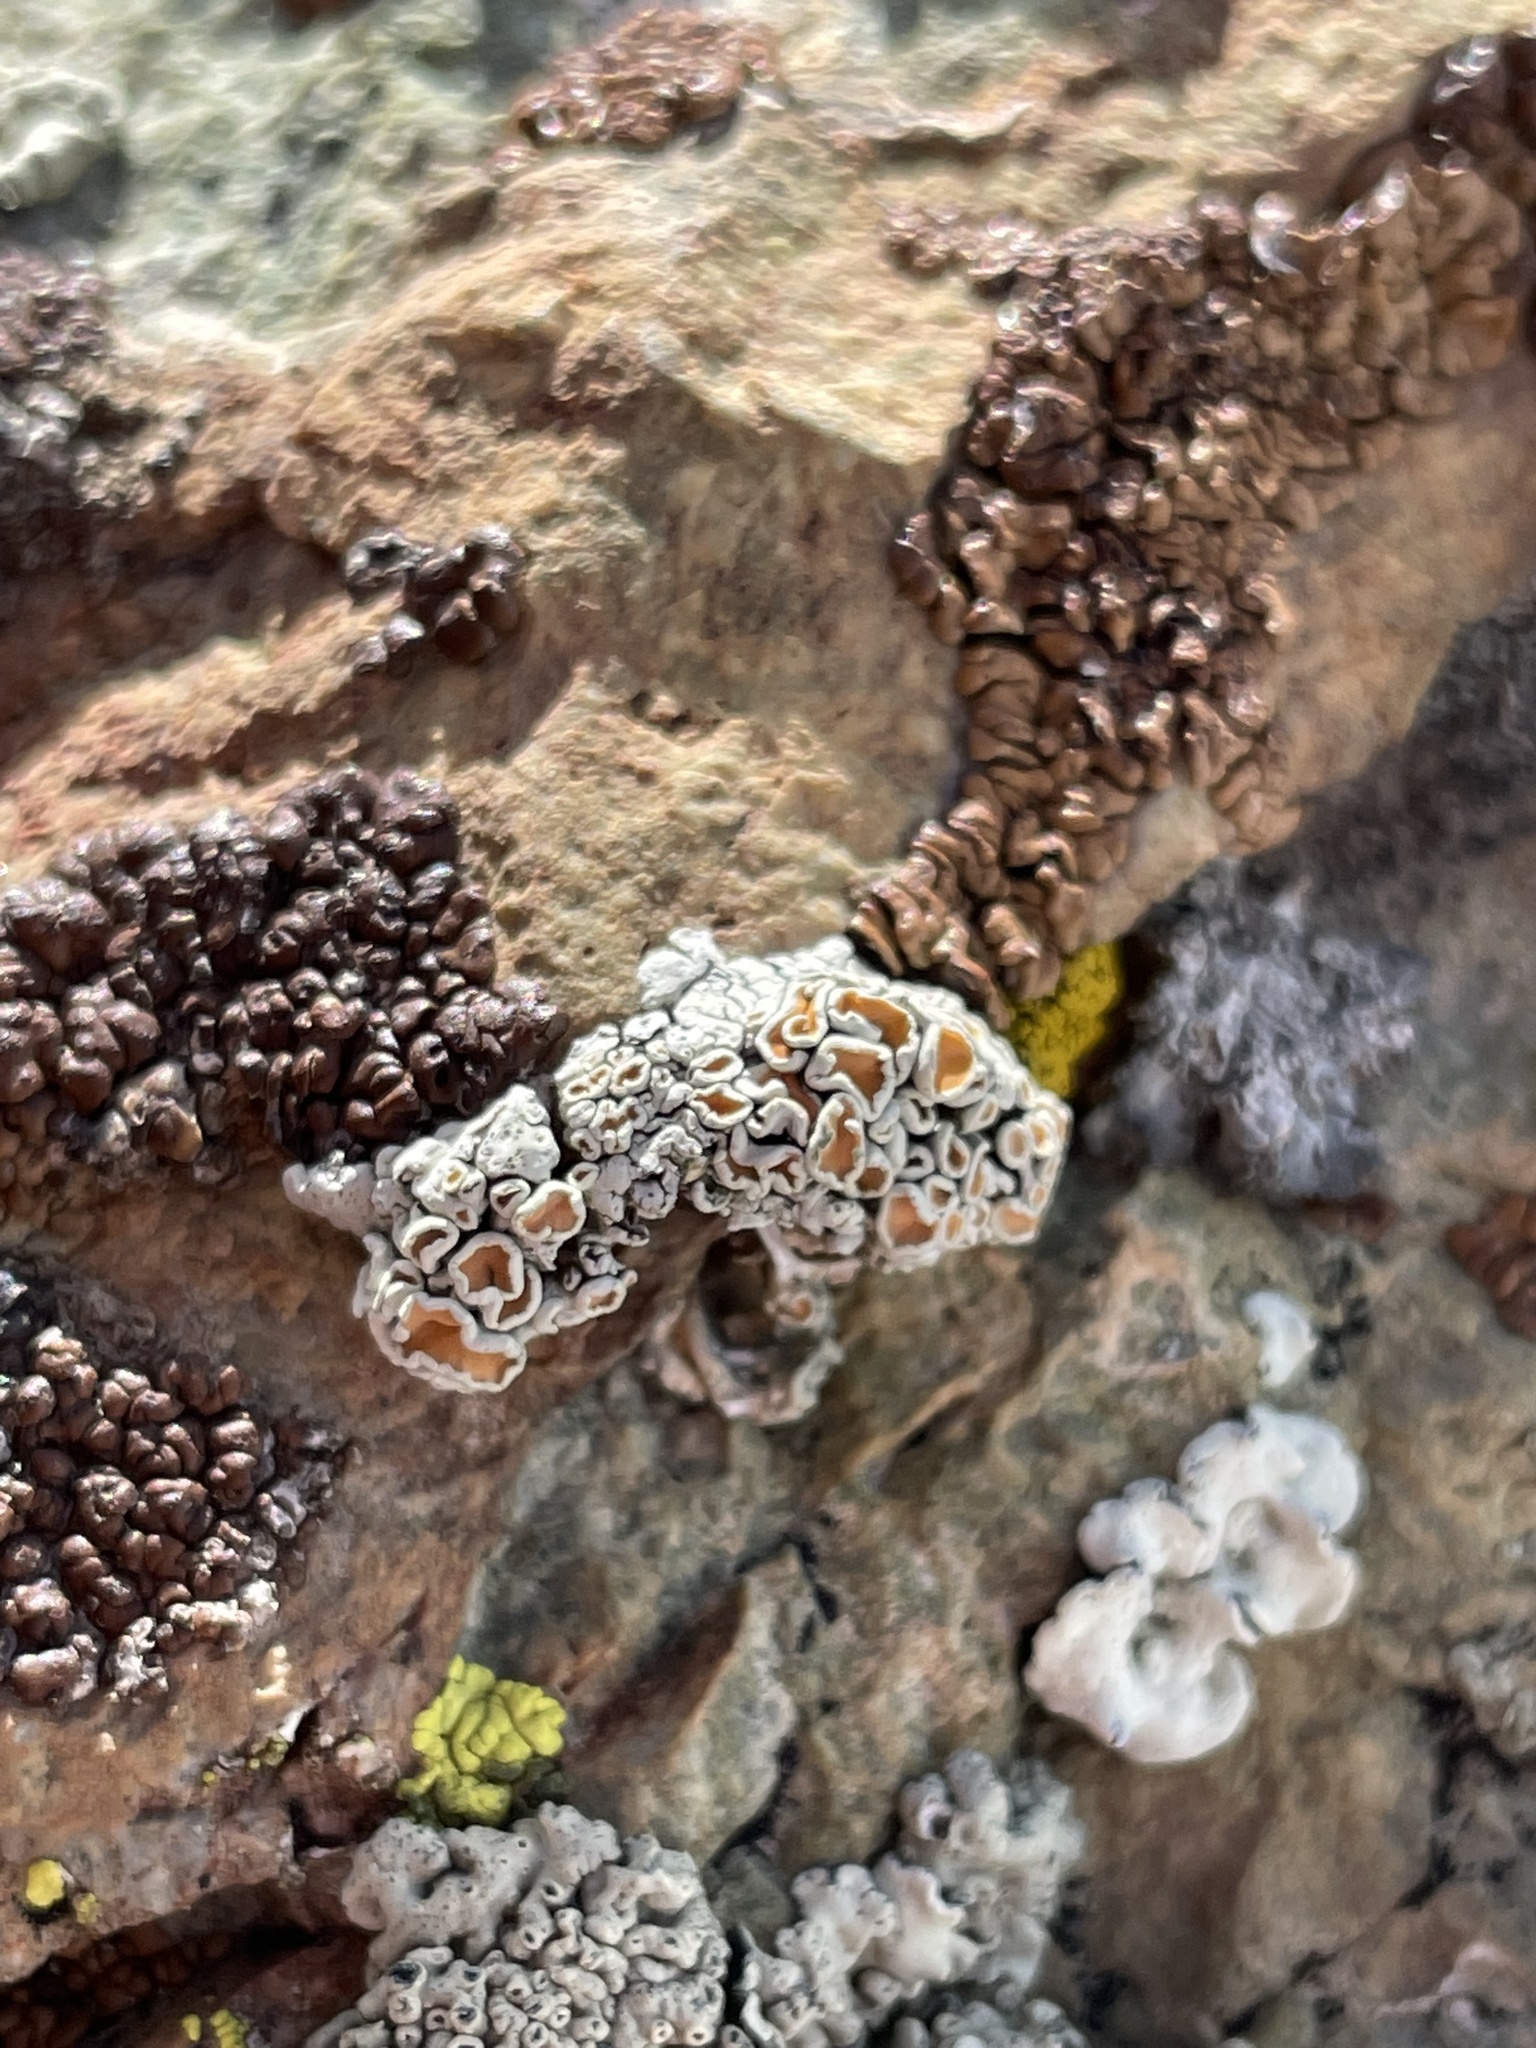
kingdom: Fungi
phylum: Ascomycota
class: Lecanoromycetes
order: Lecanorales
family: Lecanoraceae
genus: Omphalodina
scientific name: Omphalodina chrysoleuca
